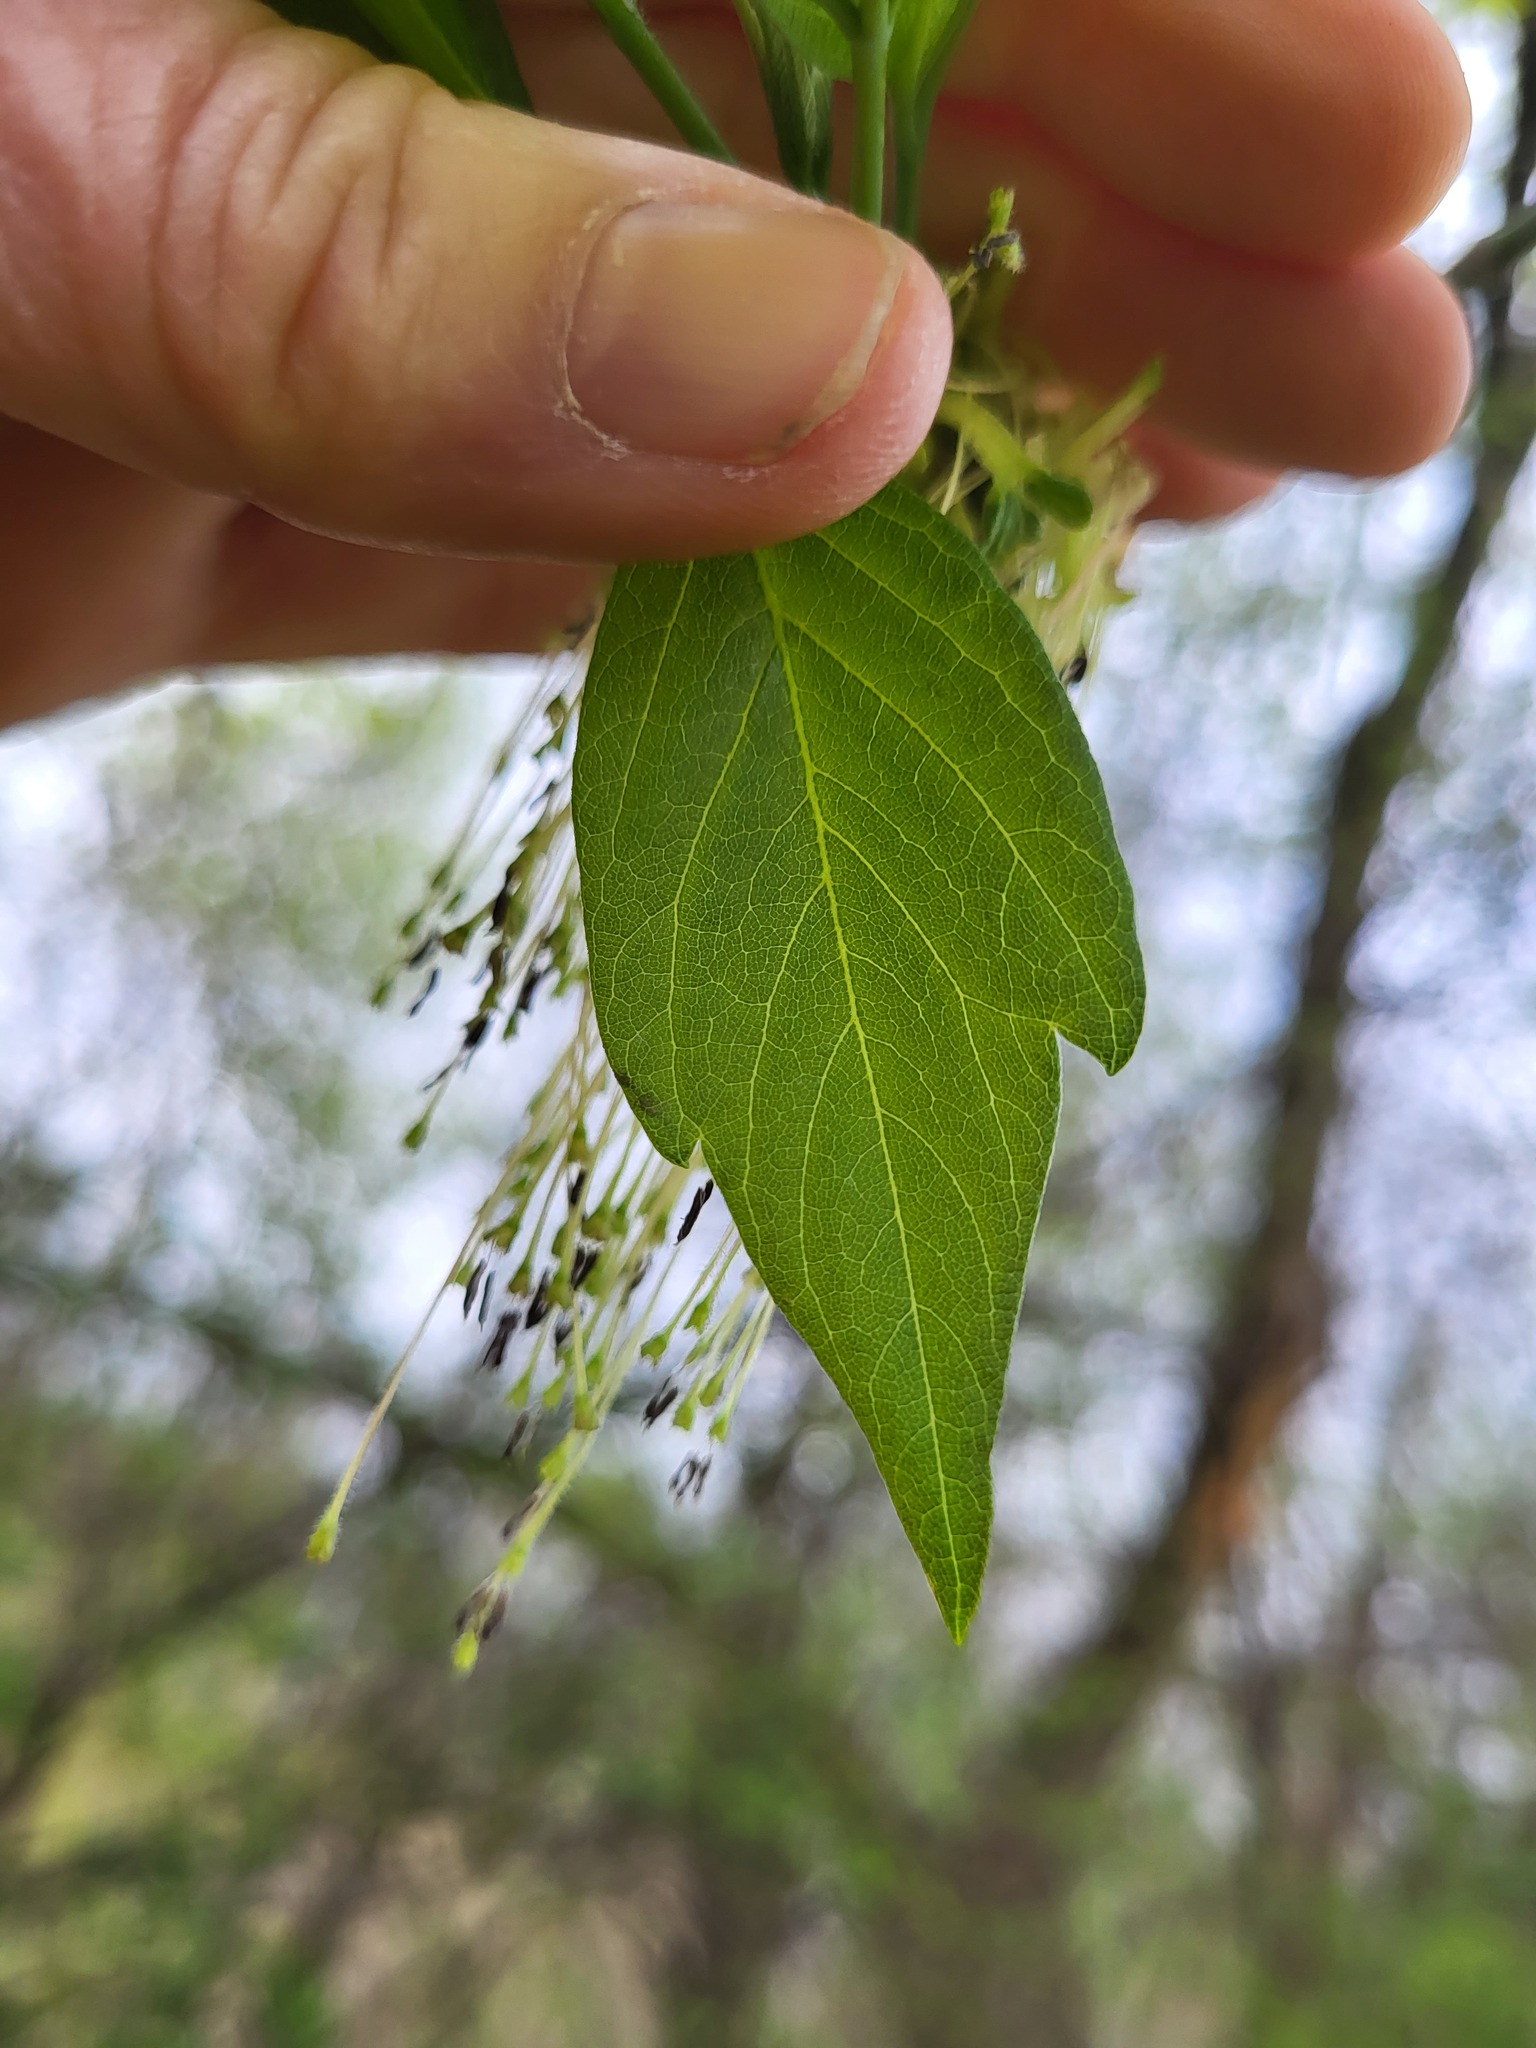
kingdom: Plantae
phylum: Tracheophyta
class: Magnoliopsida
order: Sapindales
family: Sapindaceae
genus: Acer
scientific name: Acer negundo
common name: Ashleaf maple
